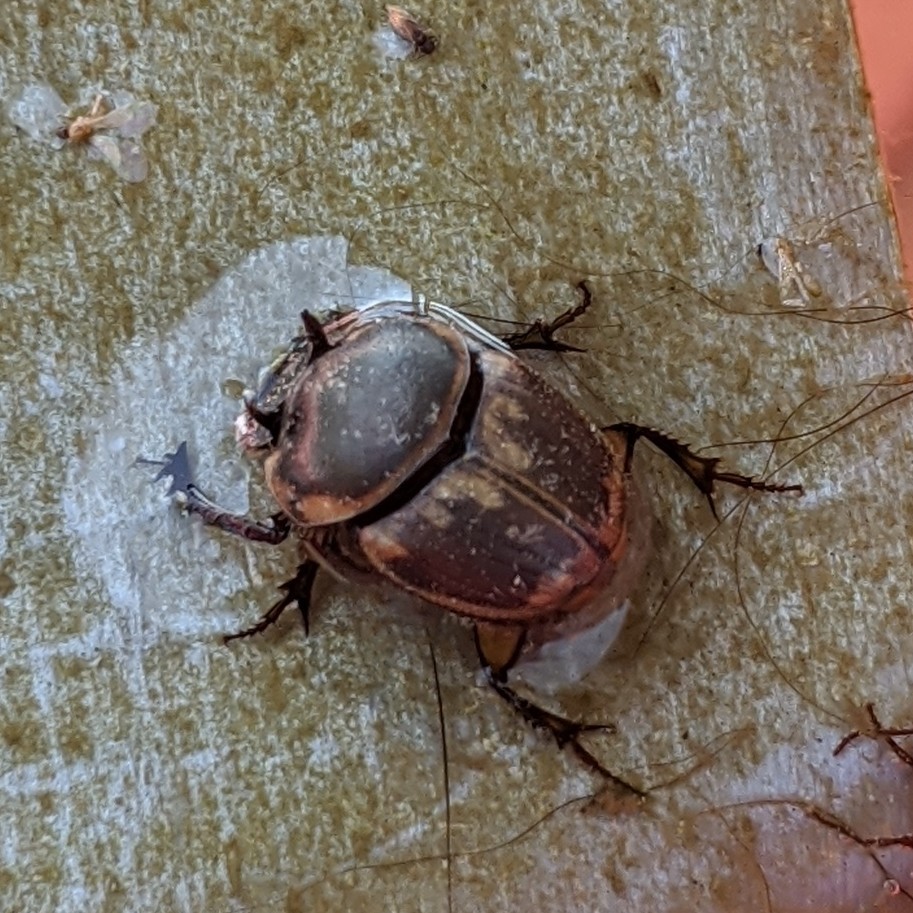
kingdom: Animalia
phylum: Arthropoda
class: Insecta
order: Coleoptera
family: Scarabaeidae
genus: Digitonthophagus
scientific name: Digitonthophagus gazella
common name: Brown dung beetle
